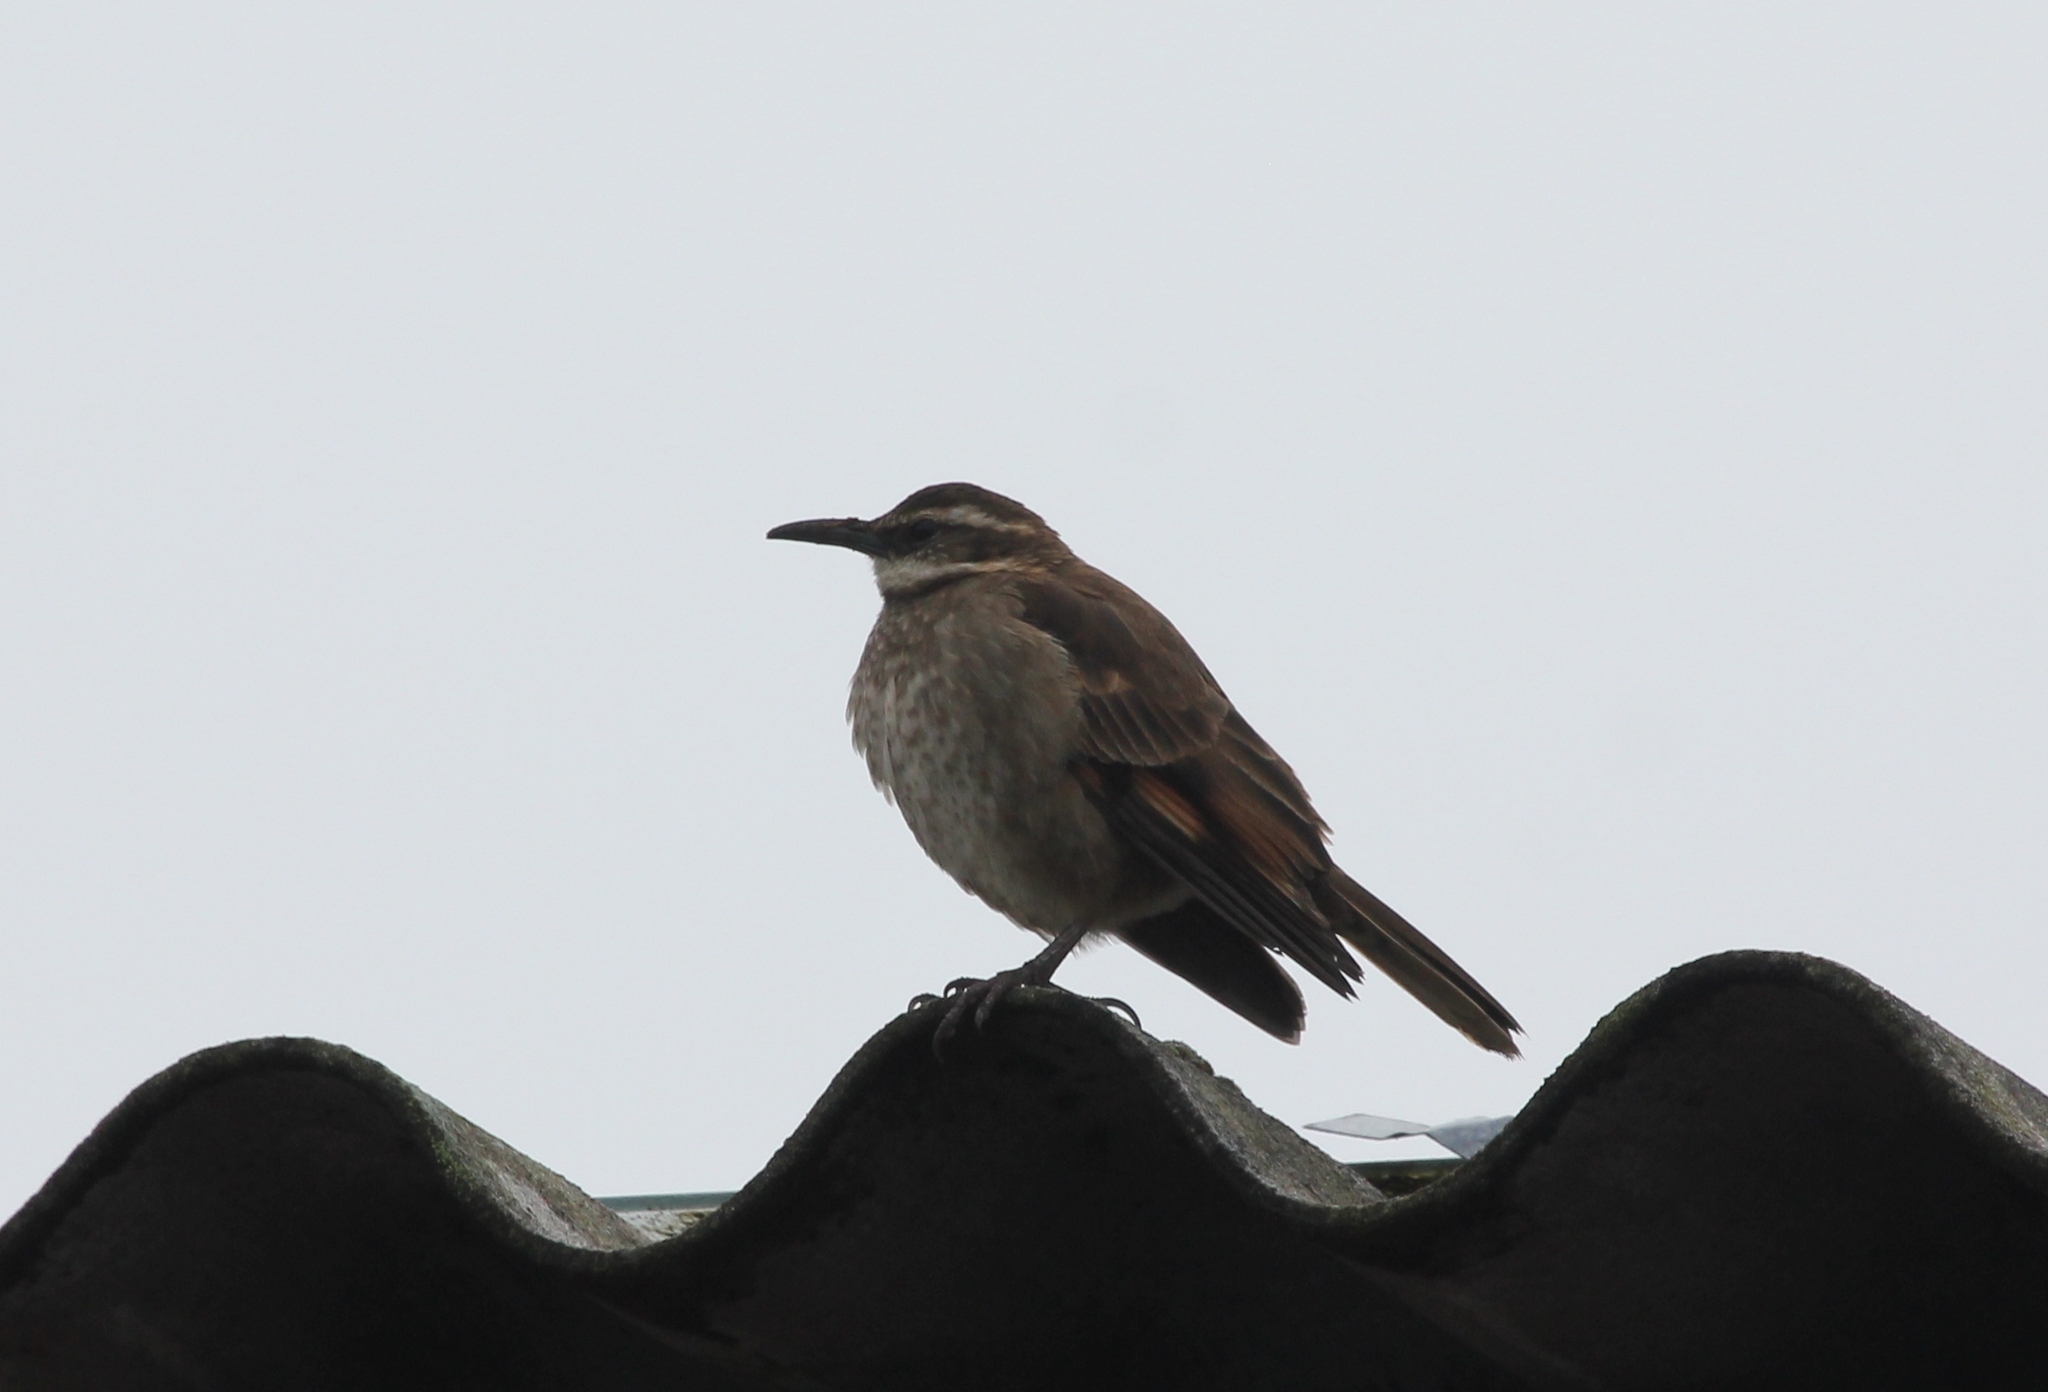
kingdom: Animalia
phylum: Chordata
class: Aves
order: Passeriformes
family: Furnariidae
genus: Cinclodes
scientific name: Cinclodes excelsior
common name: Stout-billed cinclodes
